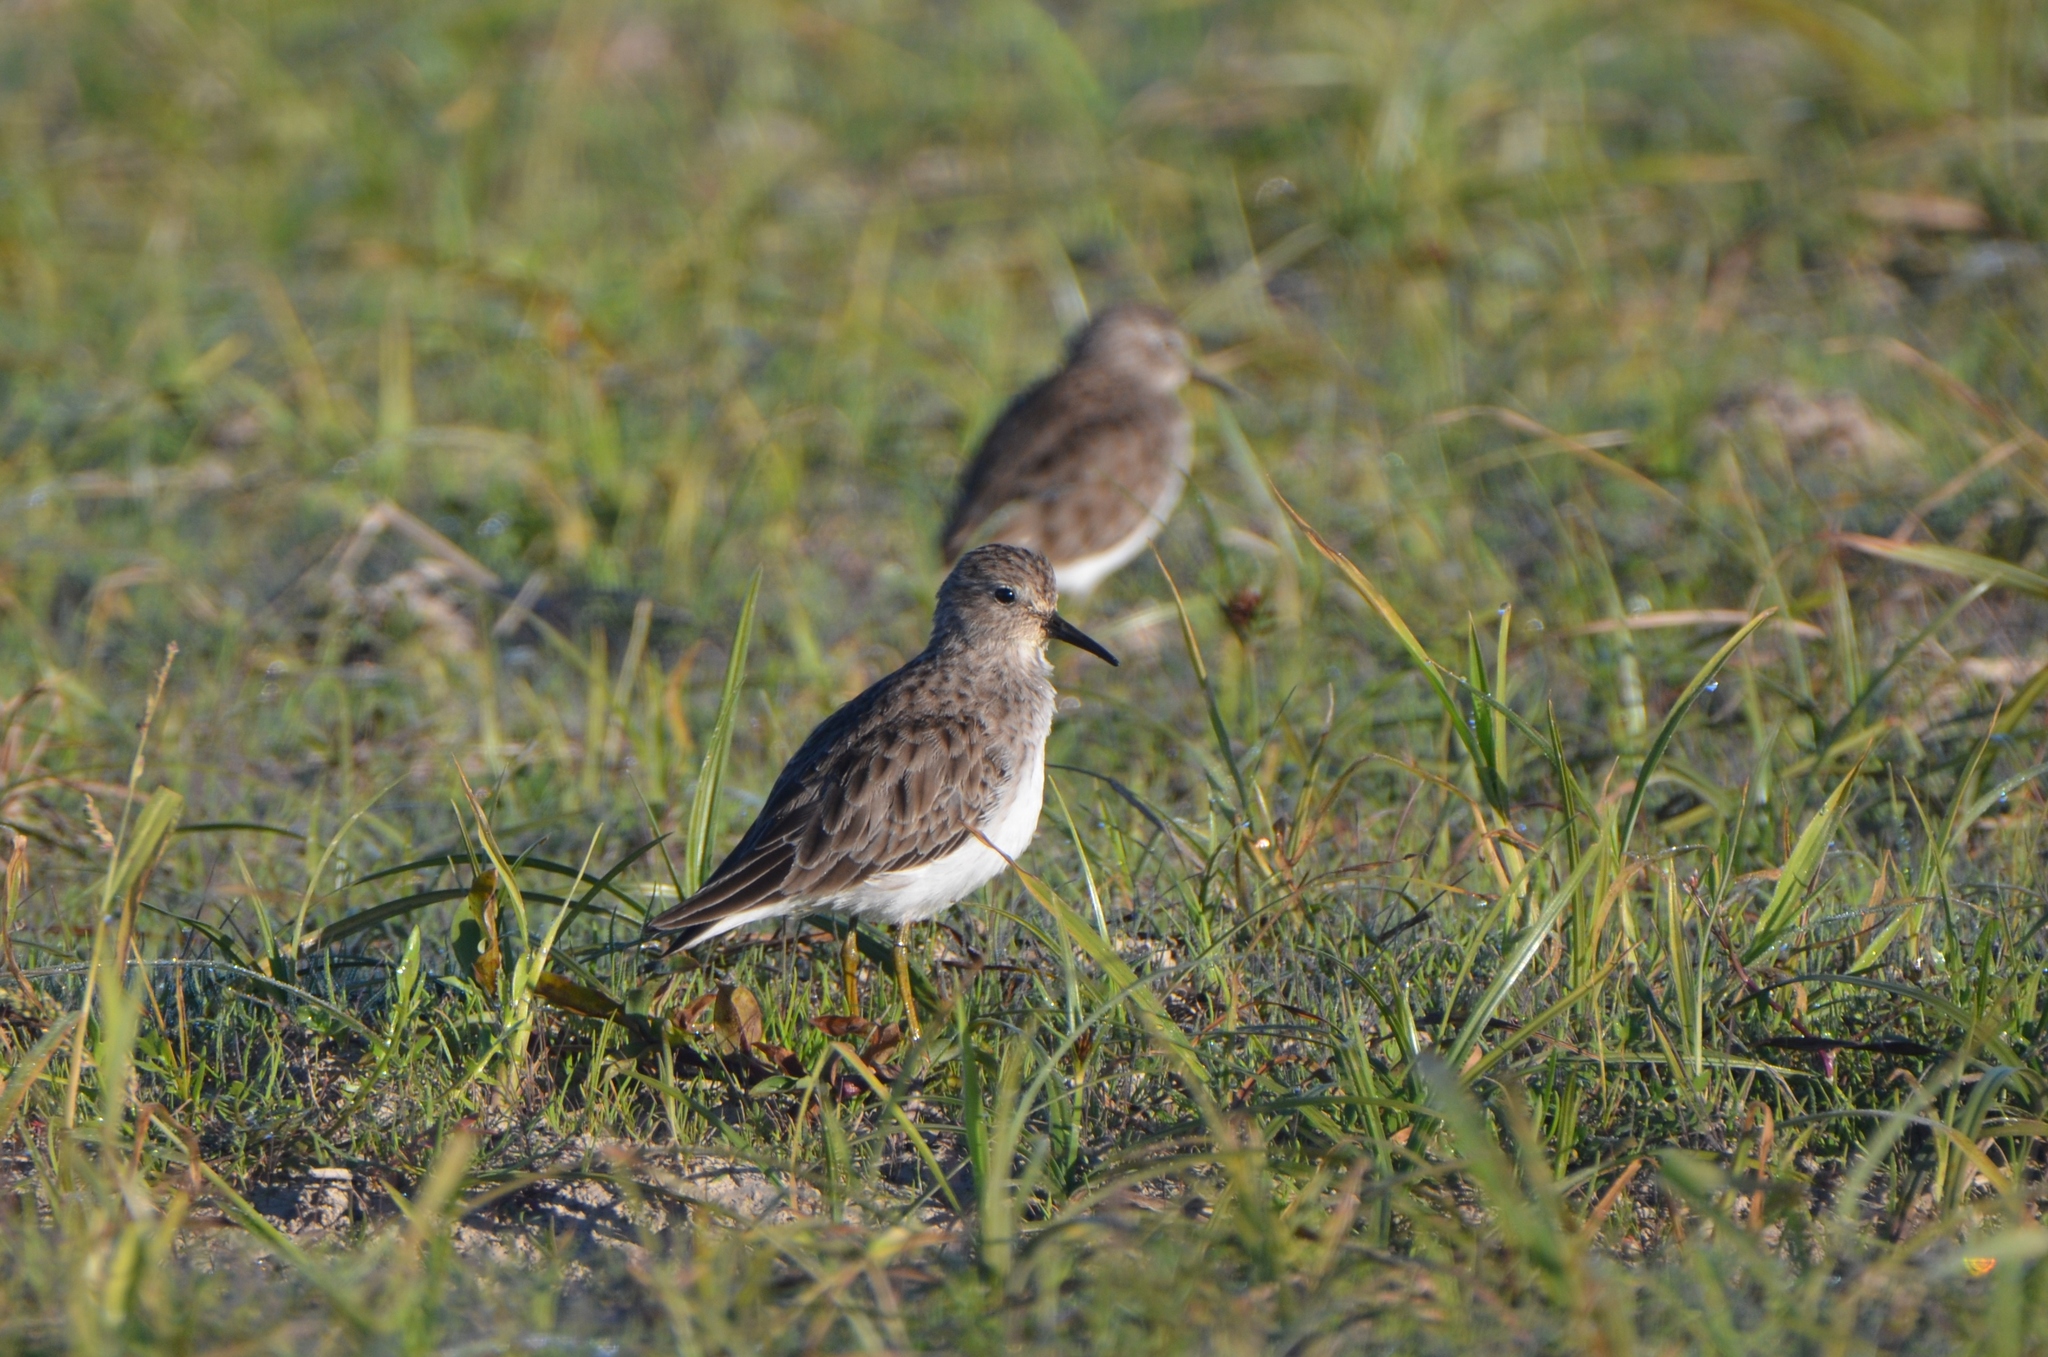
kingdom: Animalia
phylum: Chordata
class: Aves
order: Charadriiformes
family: Scolopacidae
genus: Calidris
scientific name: Calidris minutilla
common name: Least sandpiper
